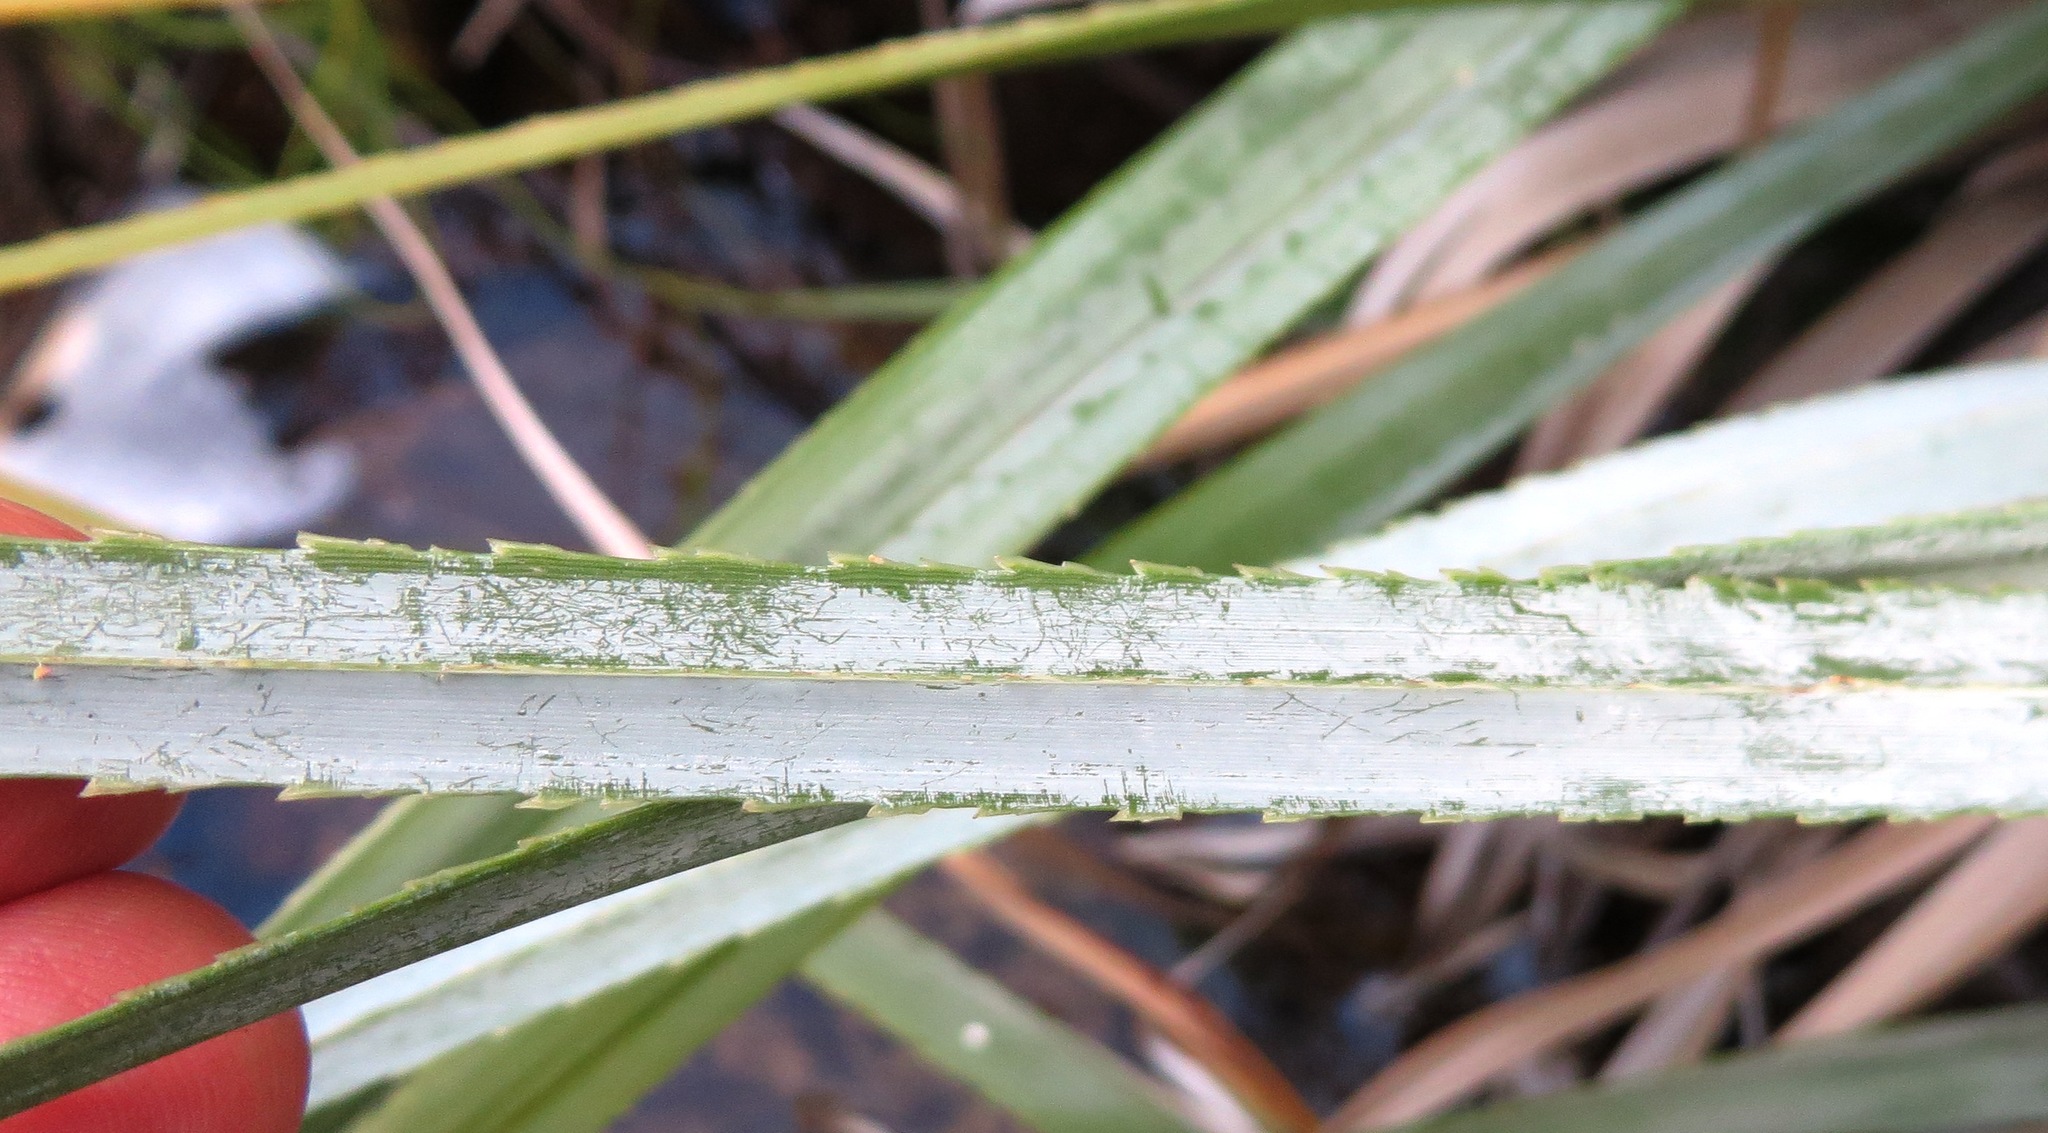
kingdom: Plantae
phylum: Tracheophyta
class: Liliopsida
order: Poales
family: Thurniaceae
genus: Prionium
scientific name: Prionium serratum
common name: Palmiet
